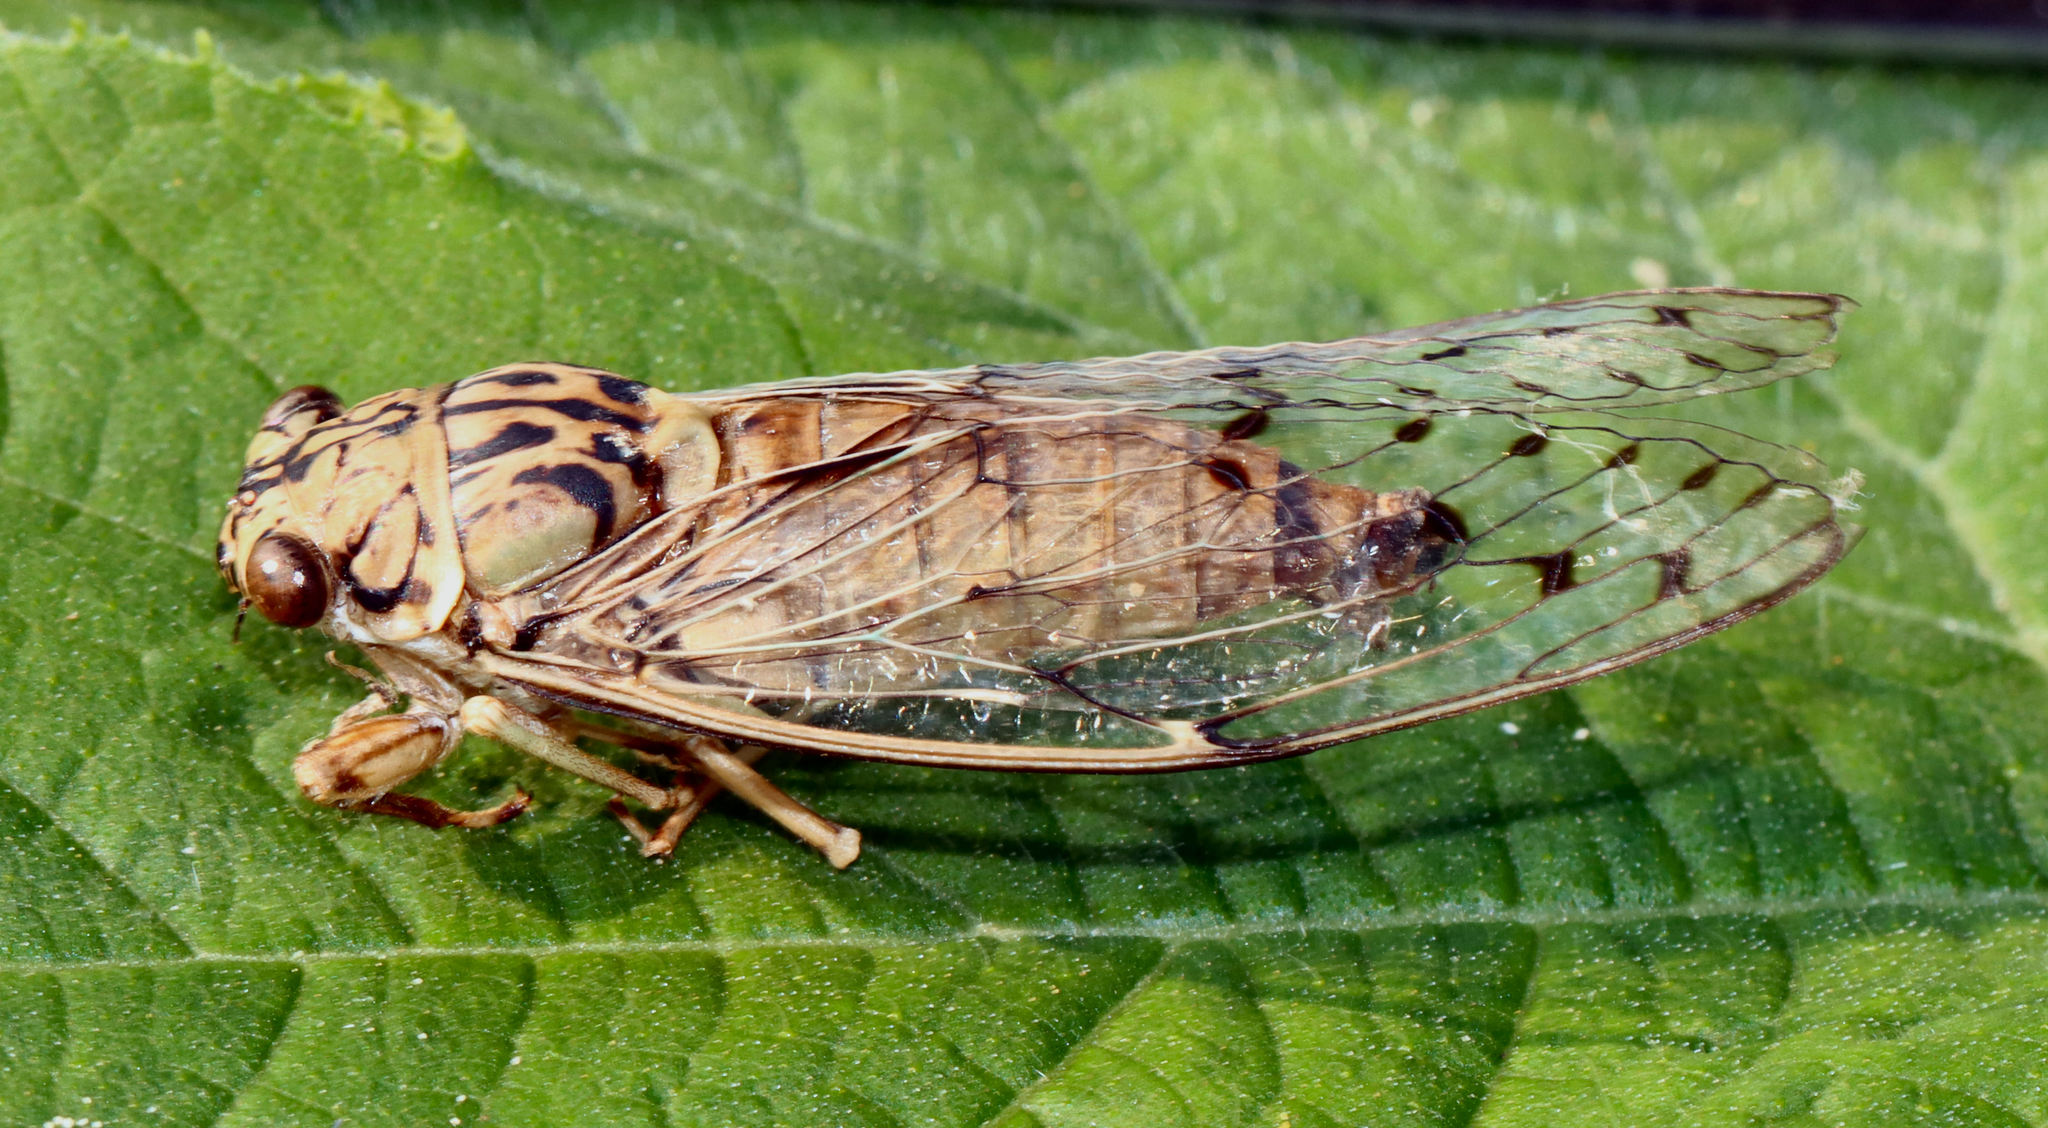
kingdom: Animalia
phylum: Arthropoda
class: Insecta
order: Hemiptera
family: Cicadidae
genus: Neocicada
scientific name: Neocicada hieroglyphica
